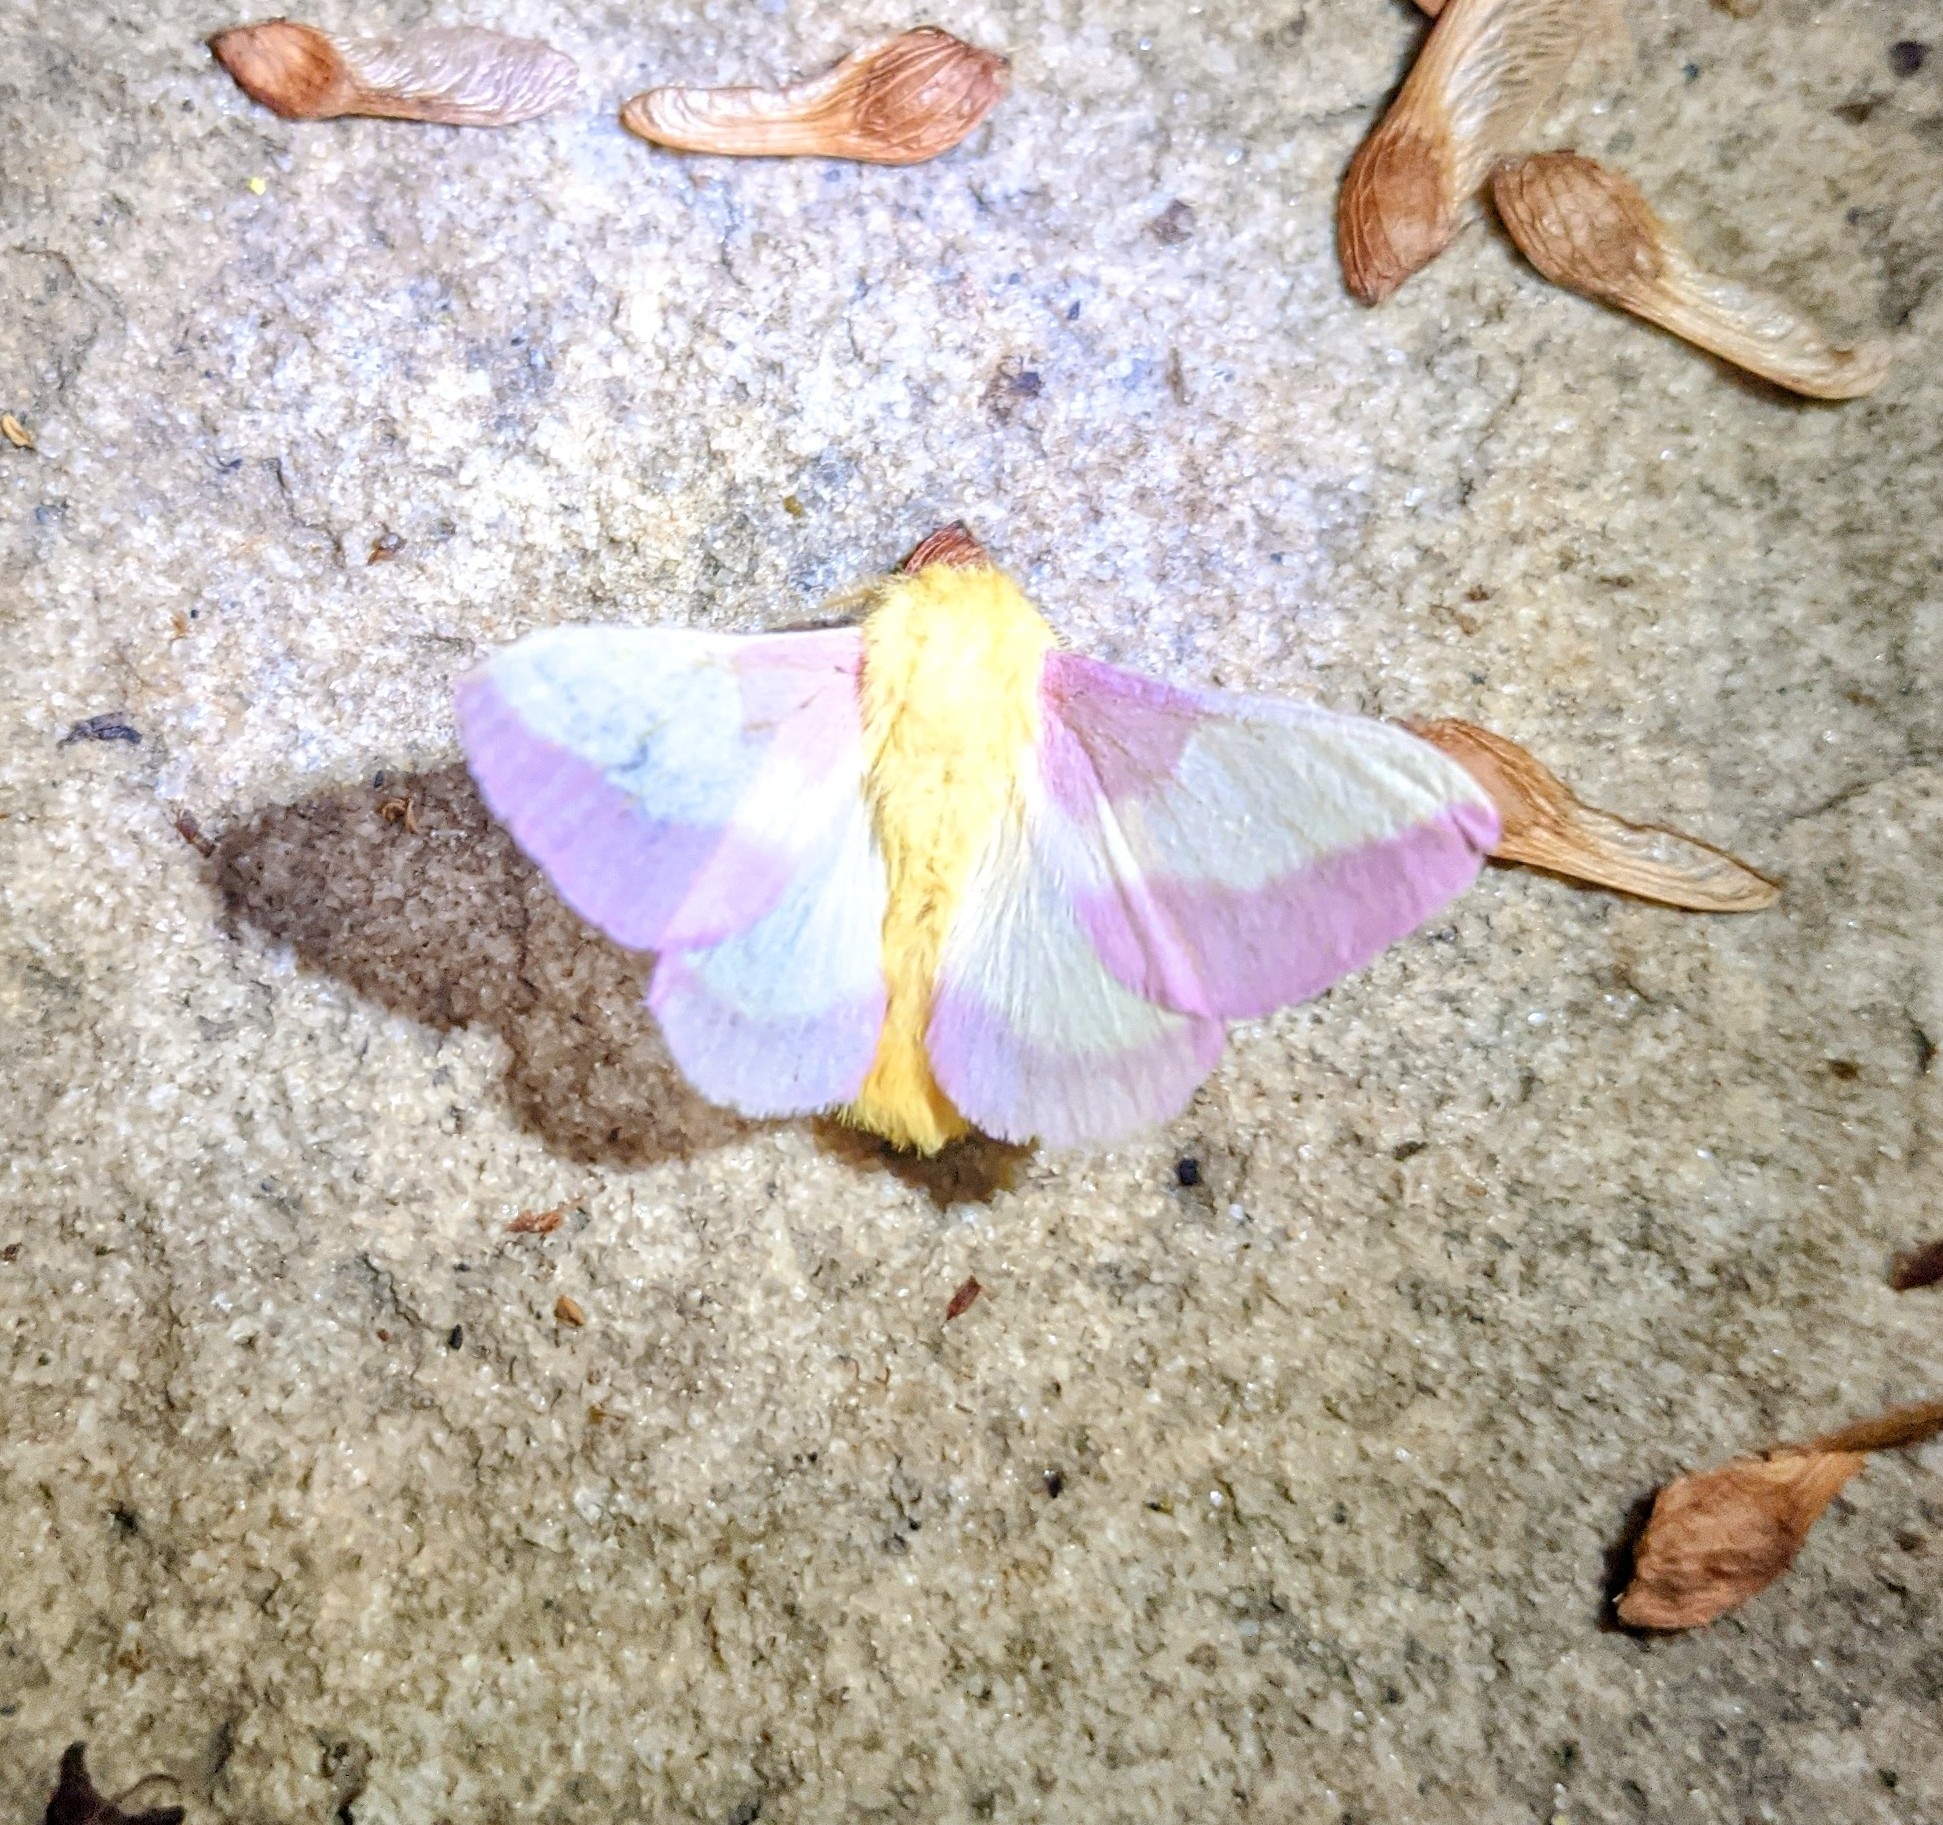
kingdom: Animalia
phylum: Arthropoda
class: Insecta
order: Lepidoptera
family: Saturniidae
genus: Dryocampa
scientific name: Dryocampa rubicunda
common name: Rosy maple moth
